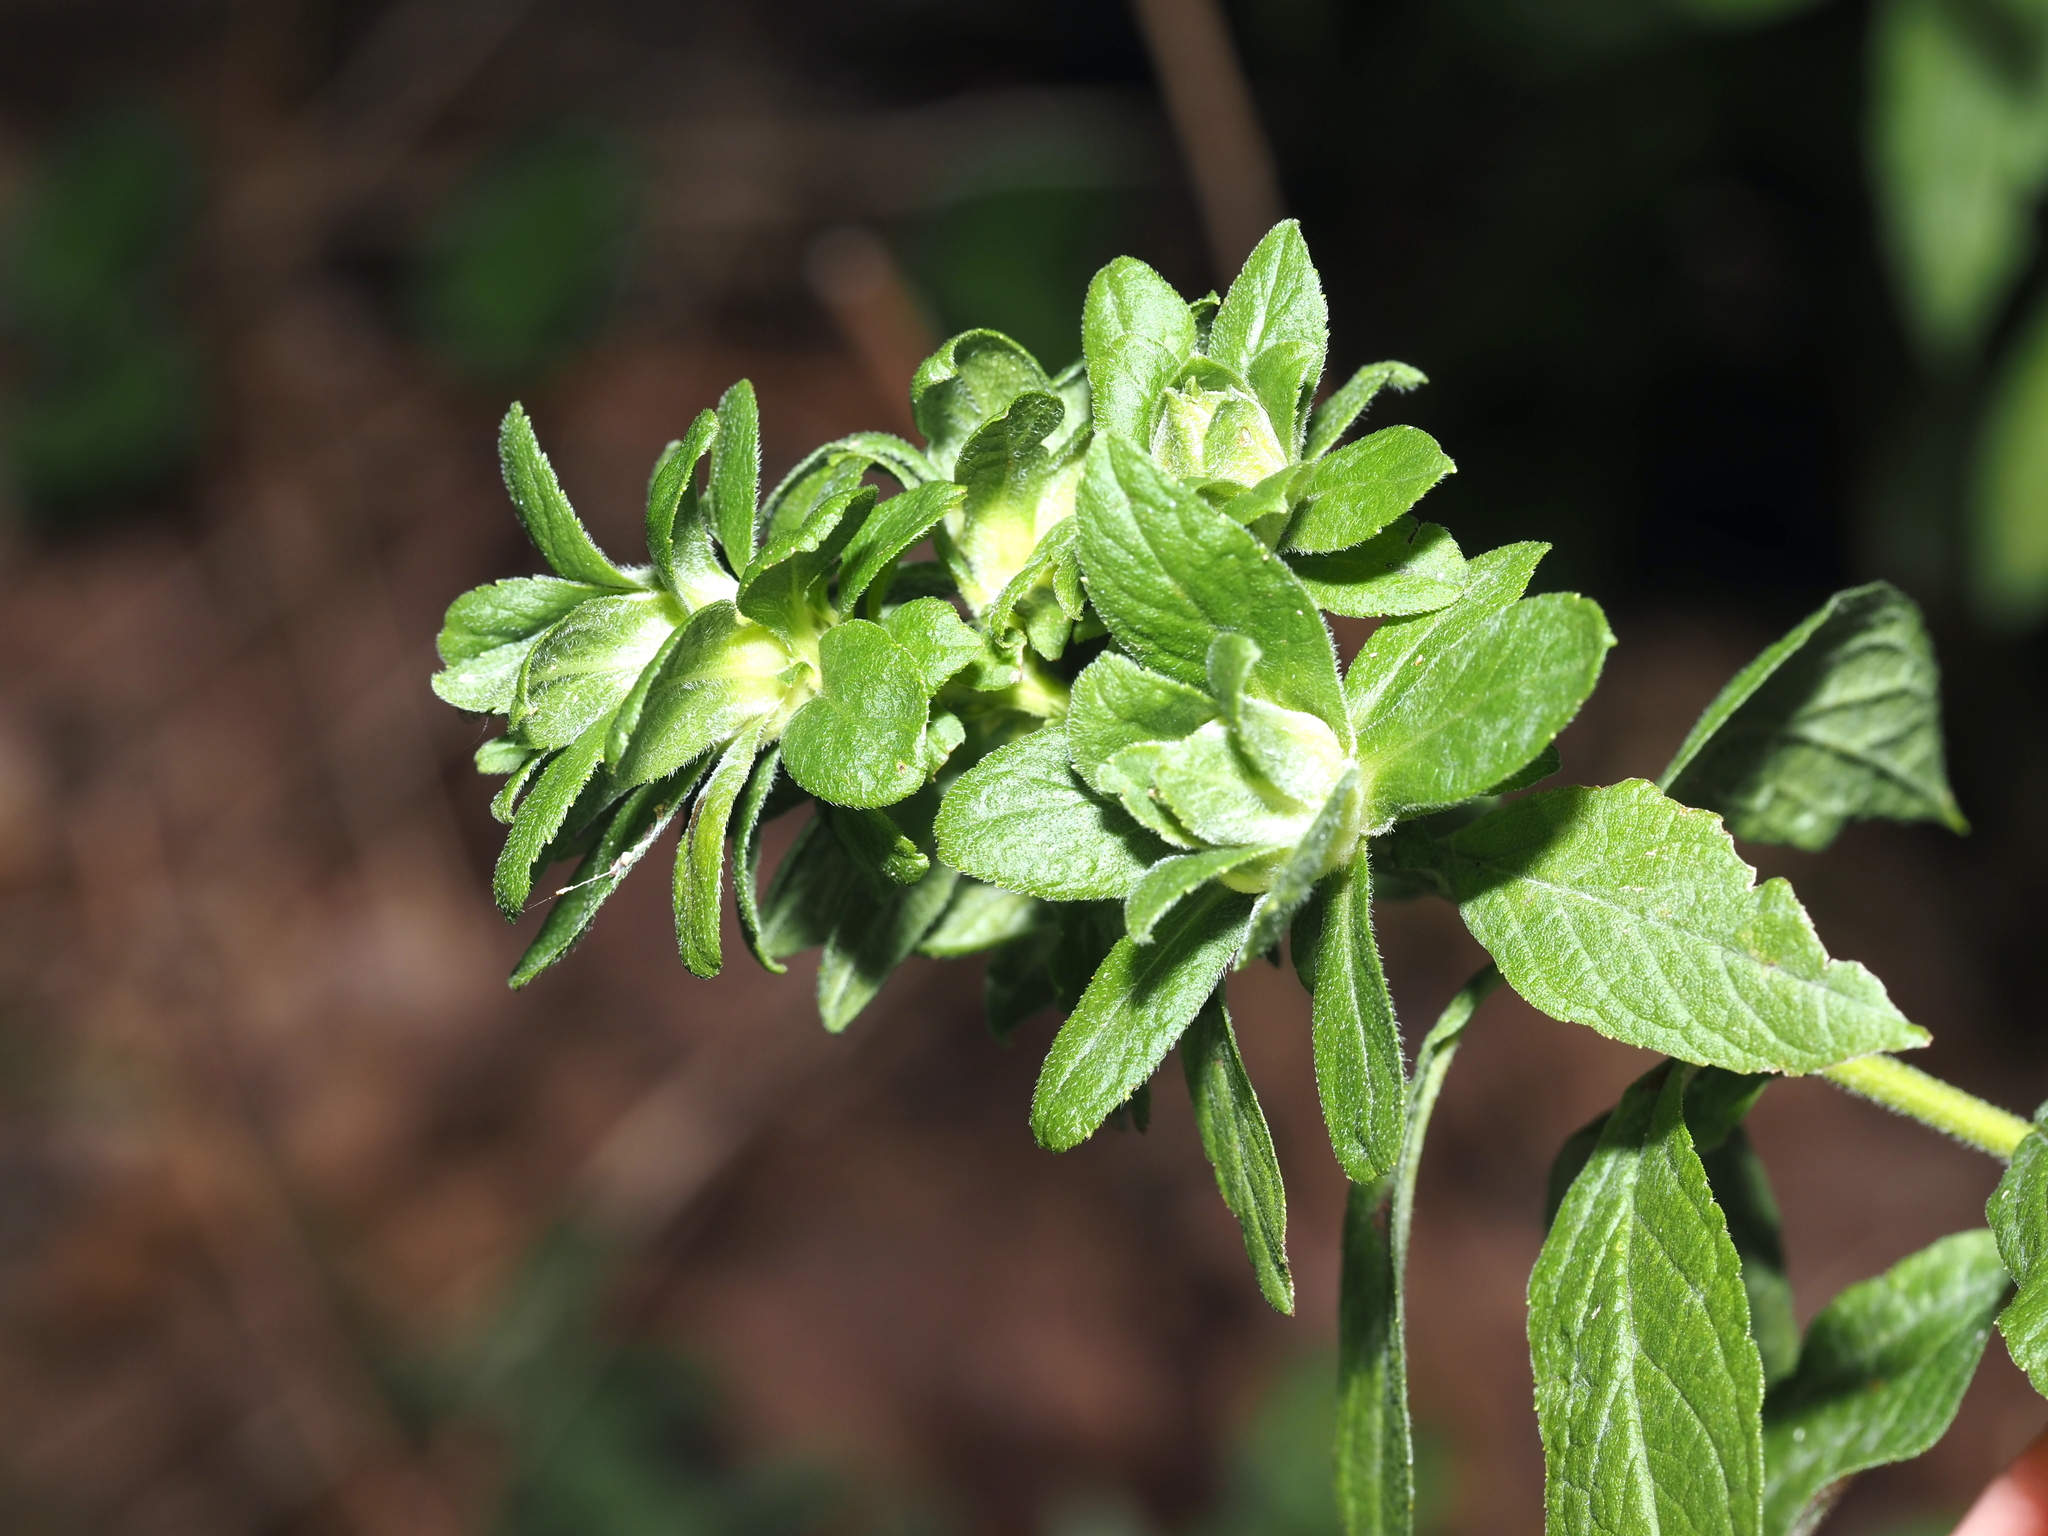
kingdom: Animalia
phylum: Arthropoda
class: Insecta
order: Diptera
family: Tephritidae
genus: Procecidochares
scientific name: Procecidochares atra
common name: Goldenrod brussels sprout gall fly
